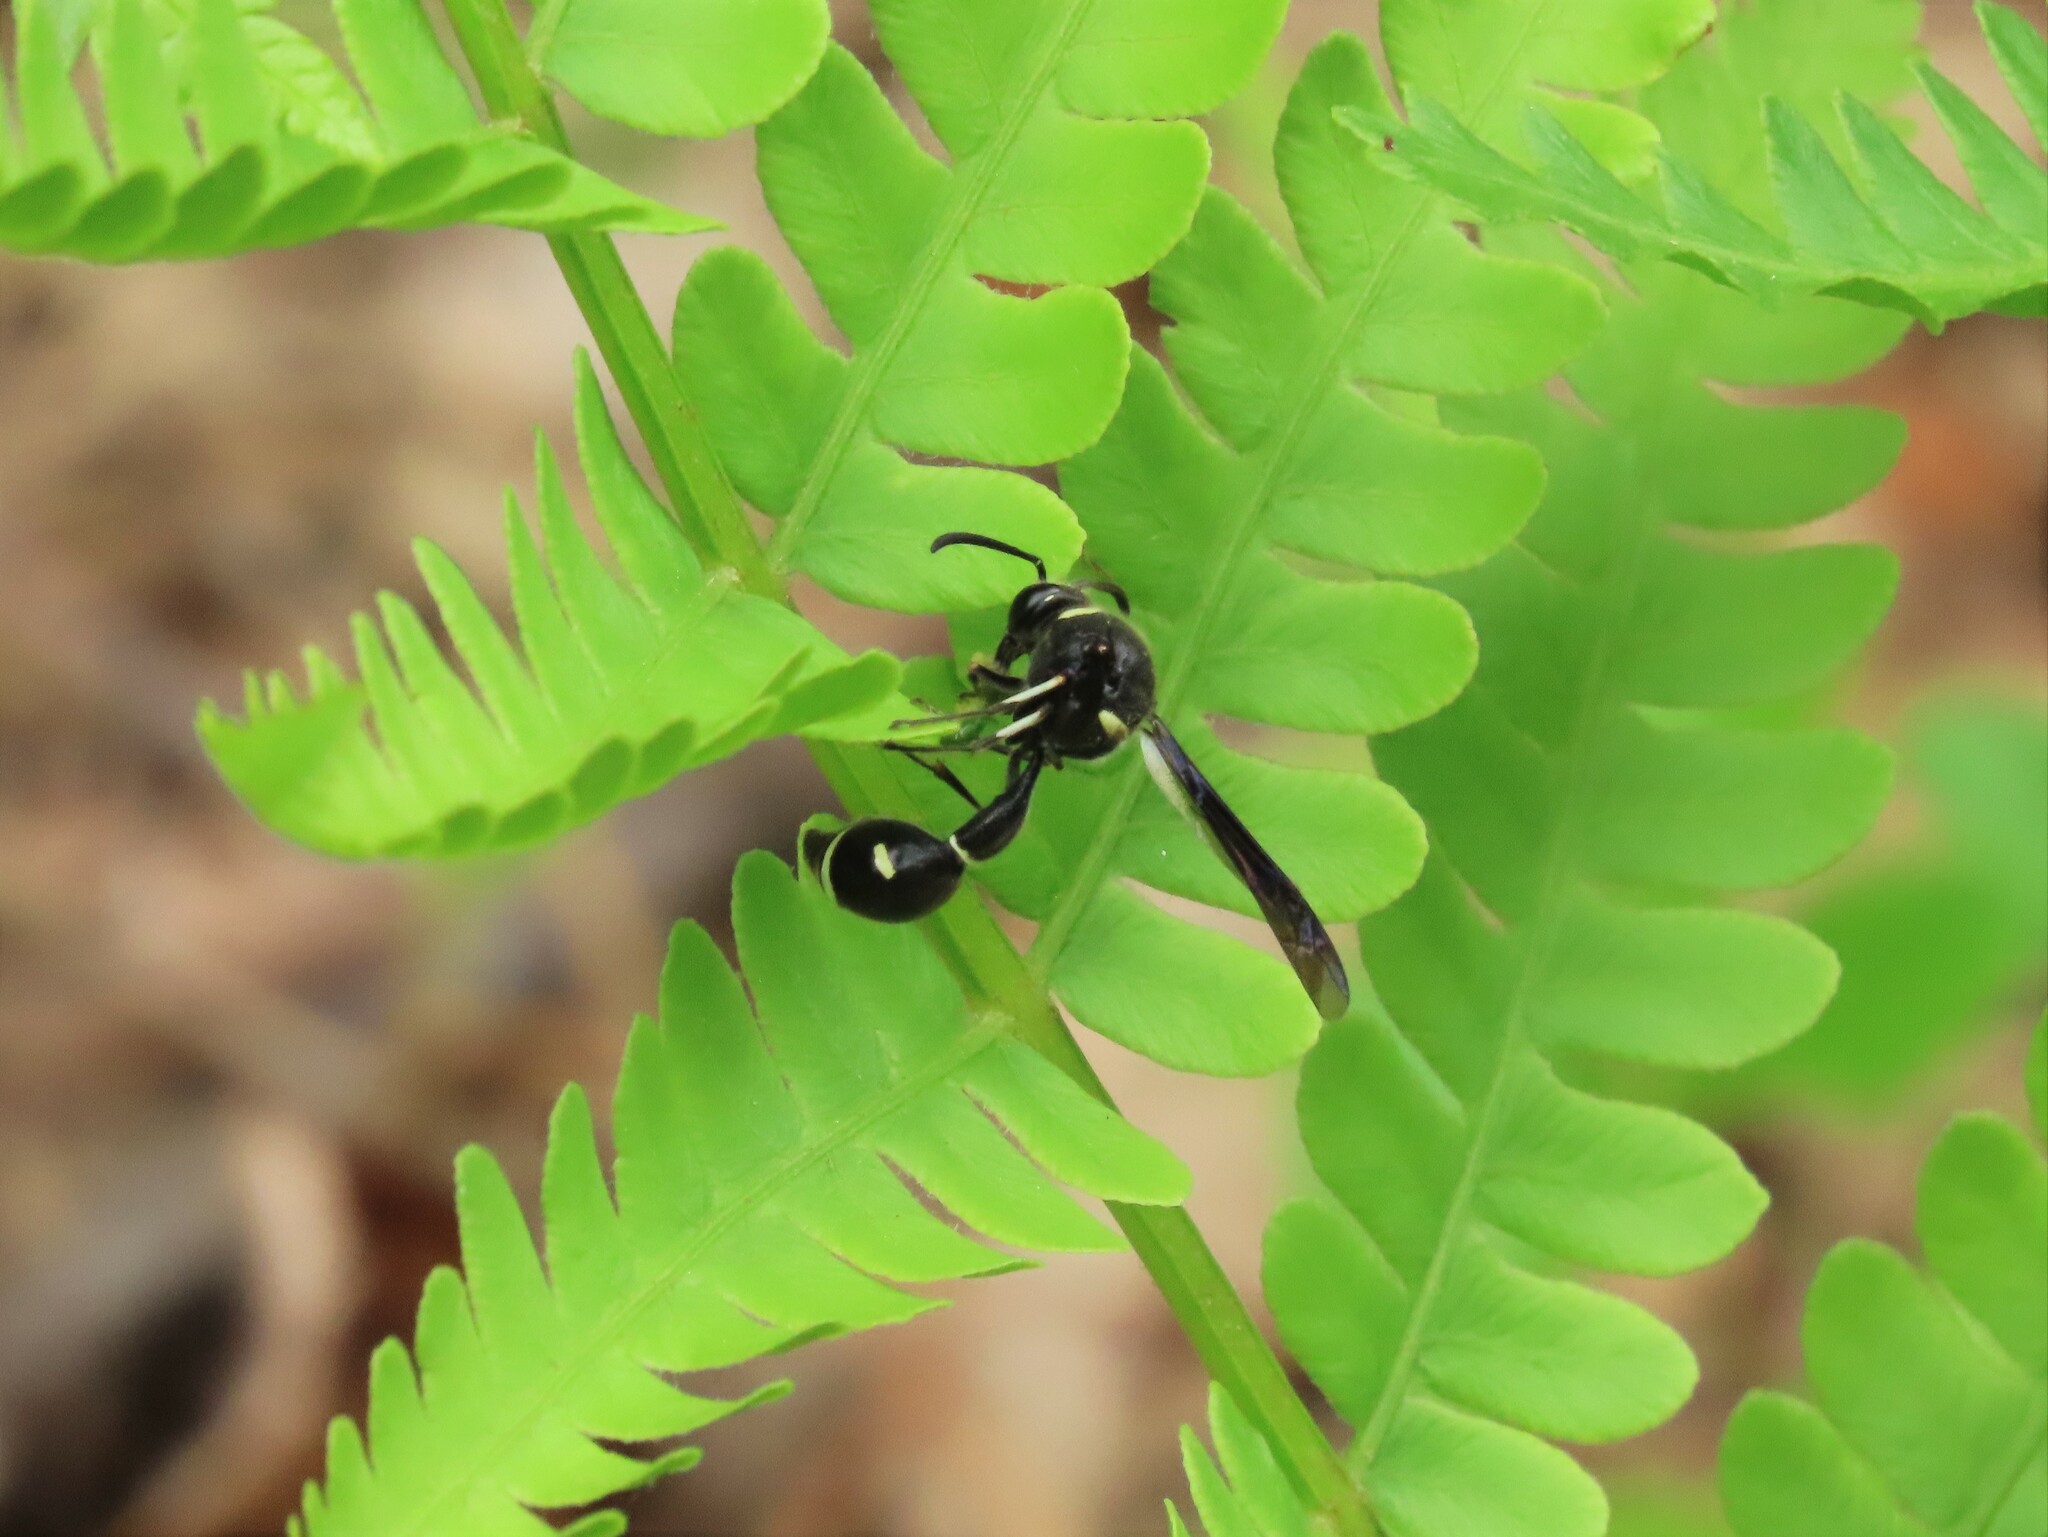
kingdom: Animalia
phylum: Arthropoda
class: Insecta
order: Hymenoptera
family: Vespidae
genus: Eumenes
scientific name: Eumenes fraternus
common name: Fraternal potter wasp
